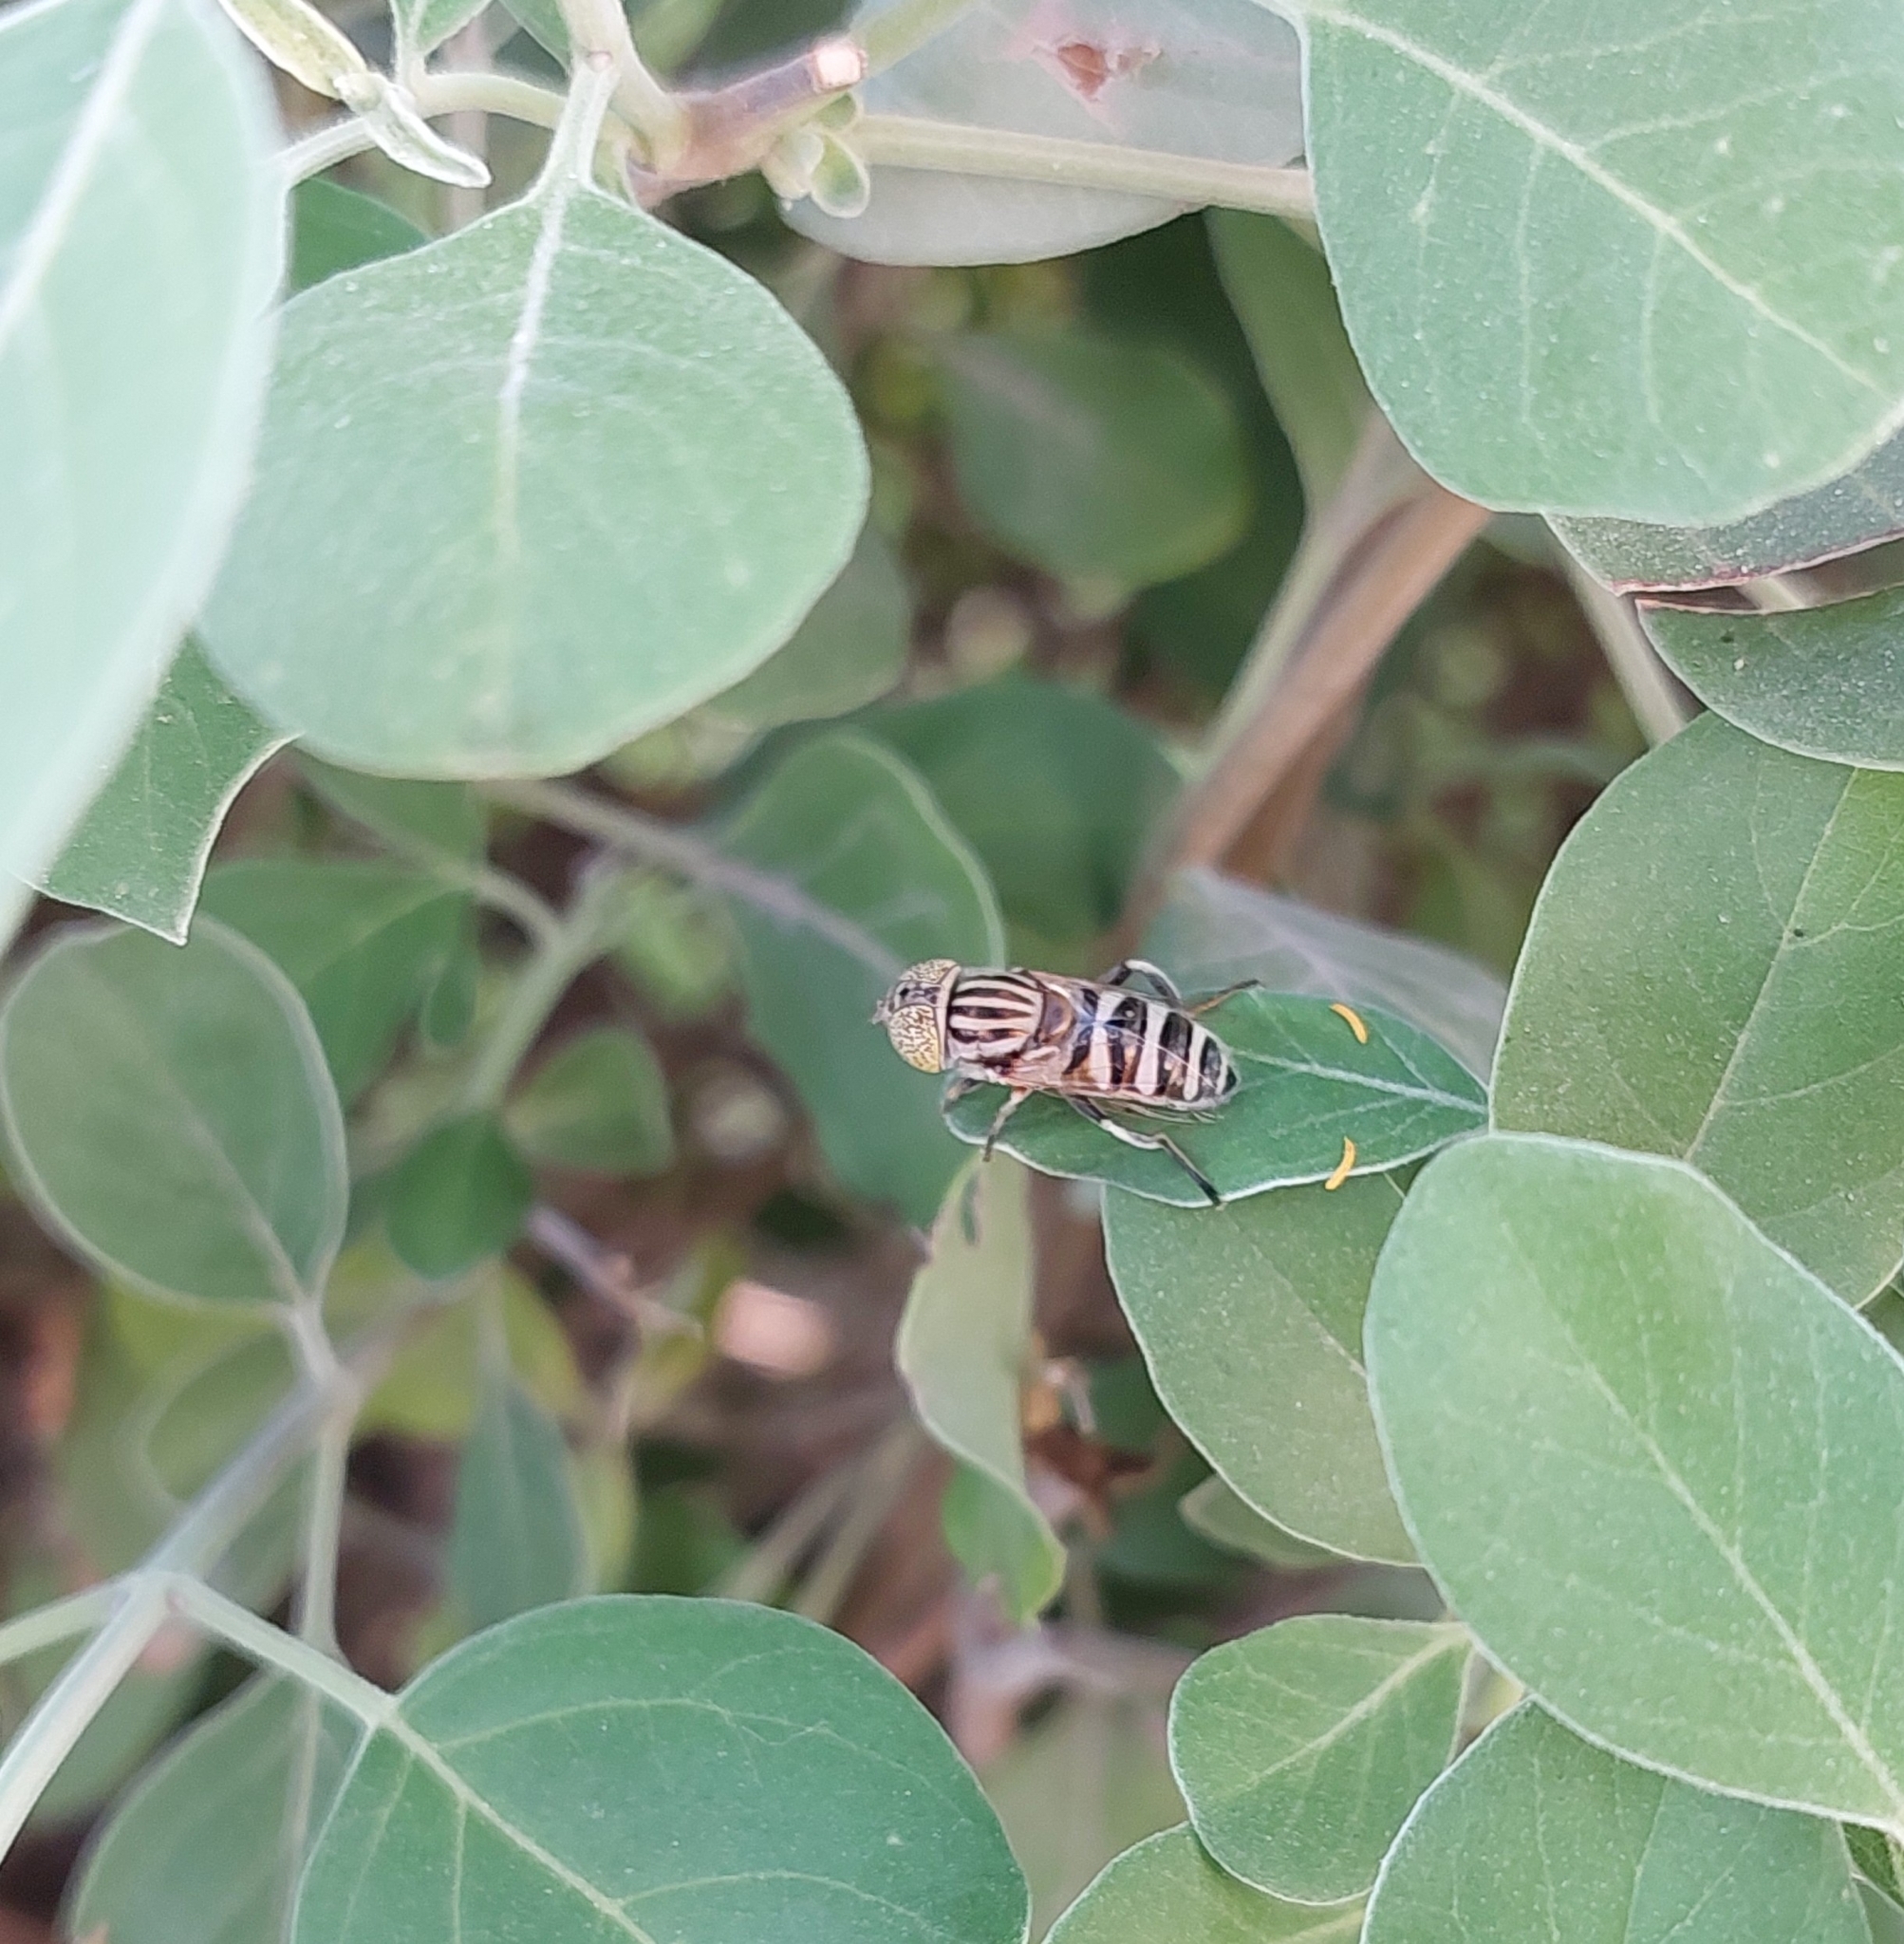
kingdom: Animalia
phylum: Arthropoda
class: Insecta
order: Diptera
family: Syrphidae
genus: Eristalinus
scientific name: Eristalinus megacephalus
